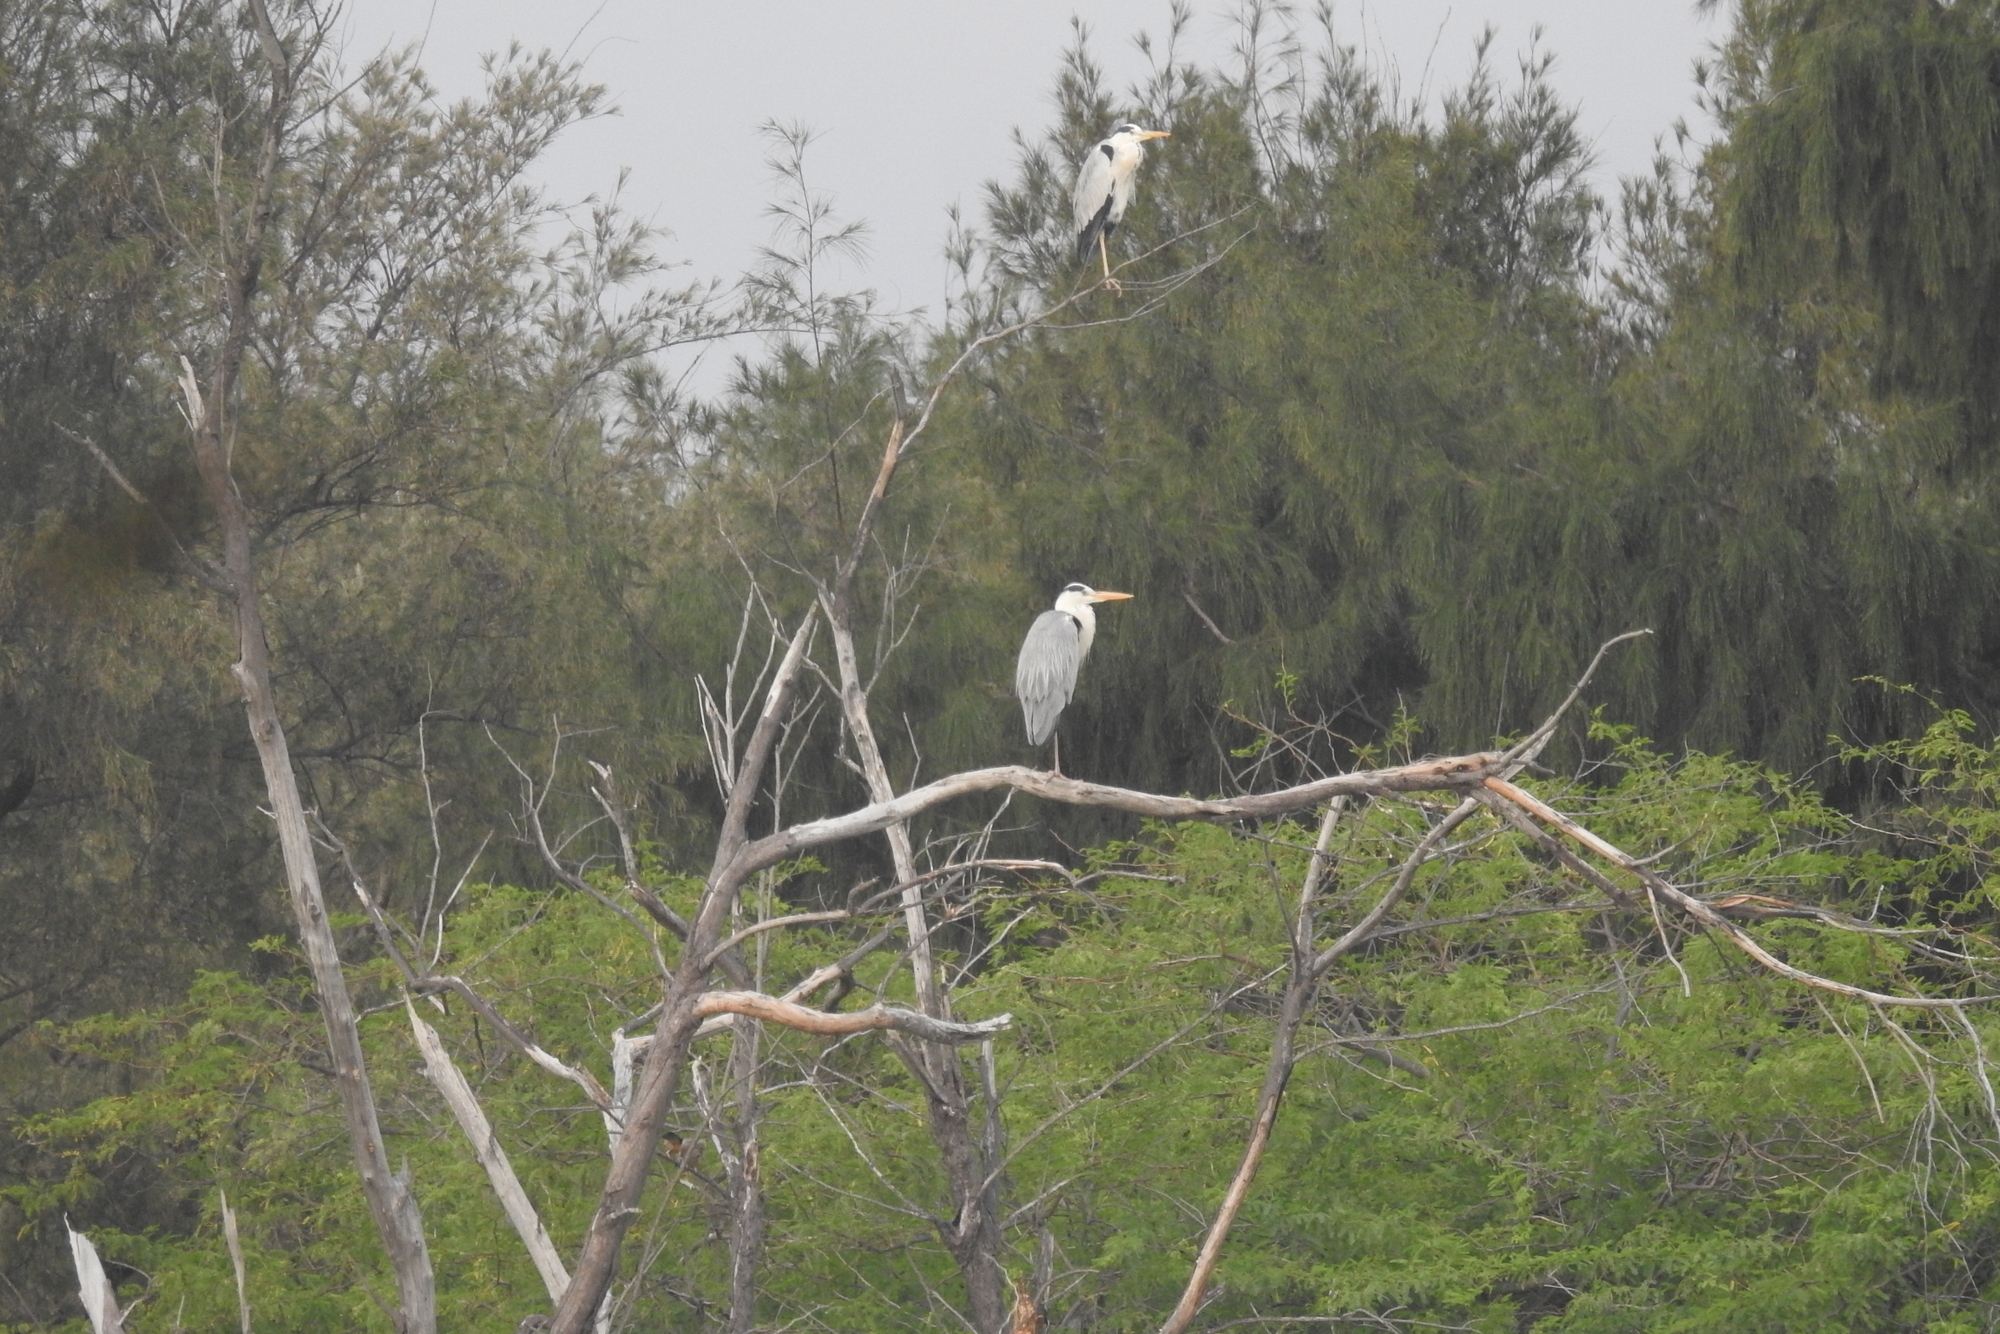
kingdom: Animalia
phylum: Chordata
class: Aves
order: Pelecaniformes
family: Ardeidae
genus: Ardea
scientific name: Ardea cinerea
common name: Grey heron
